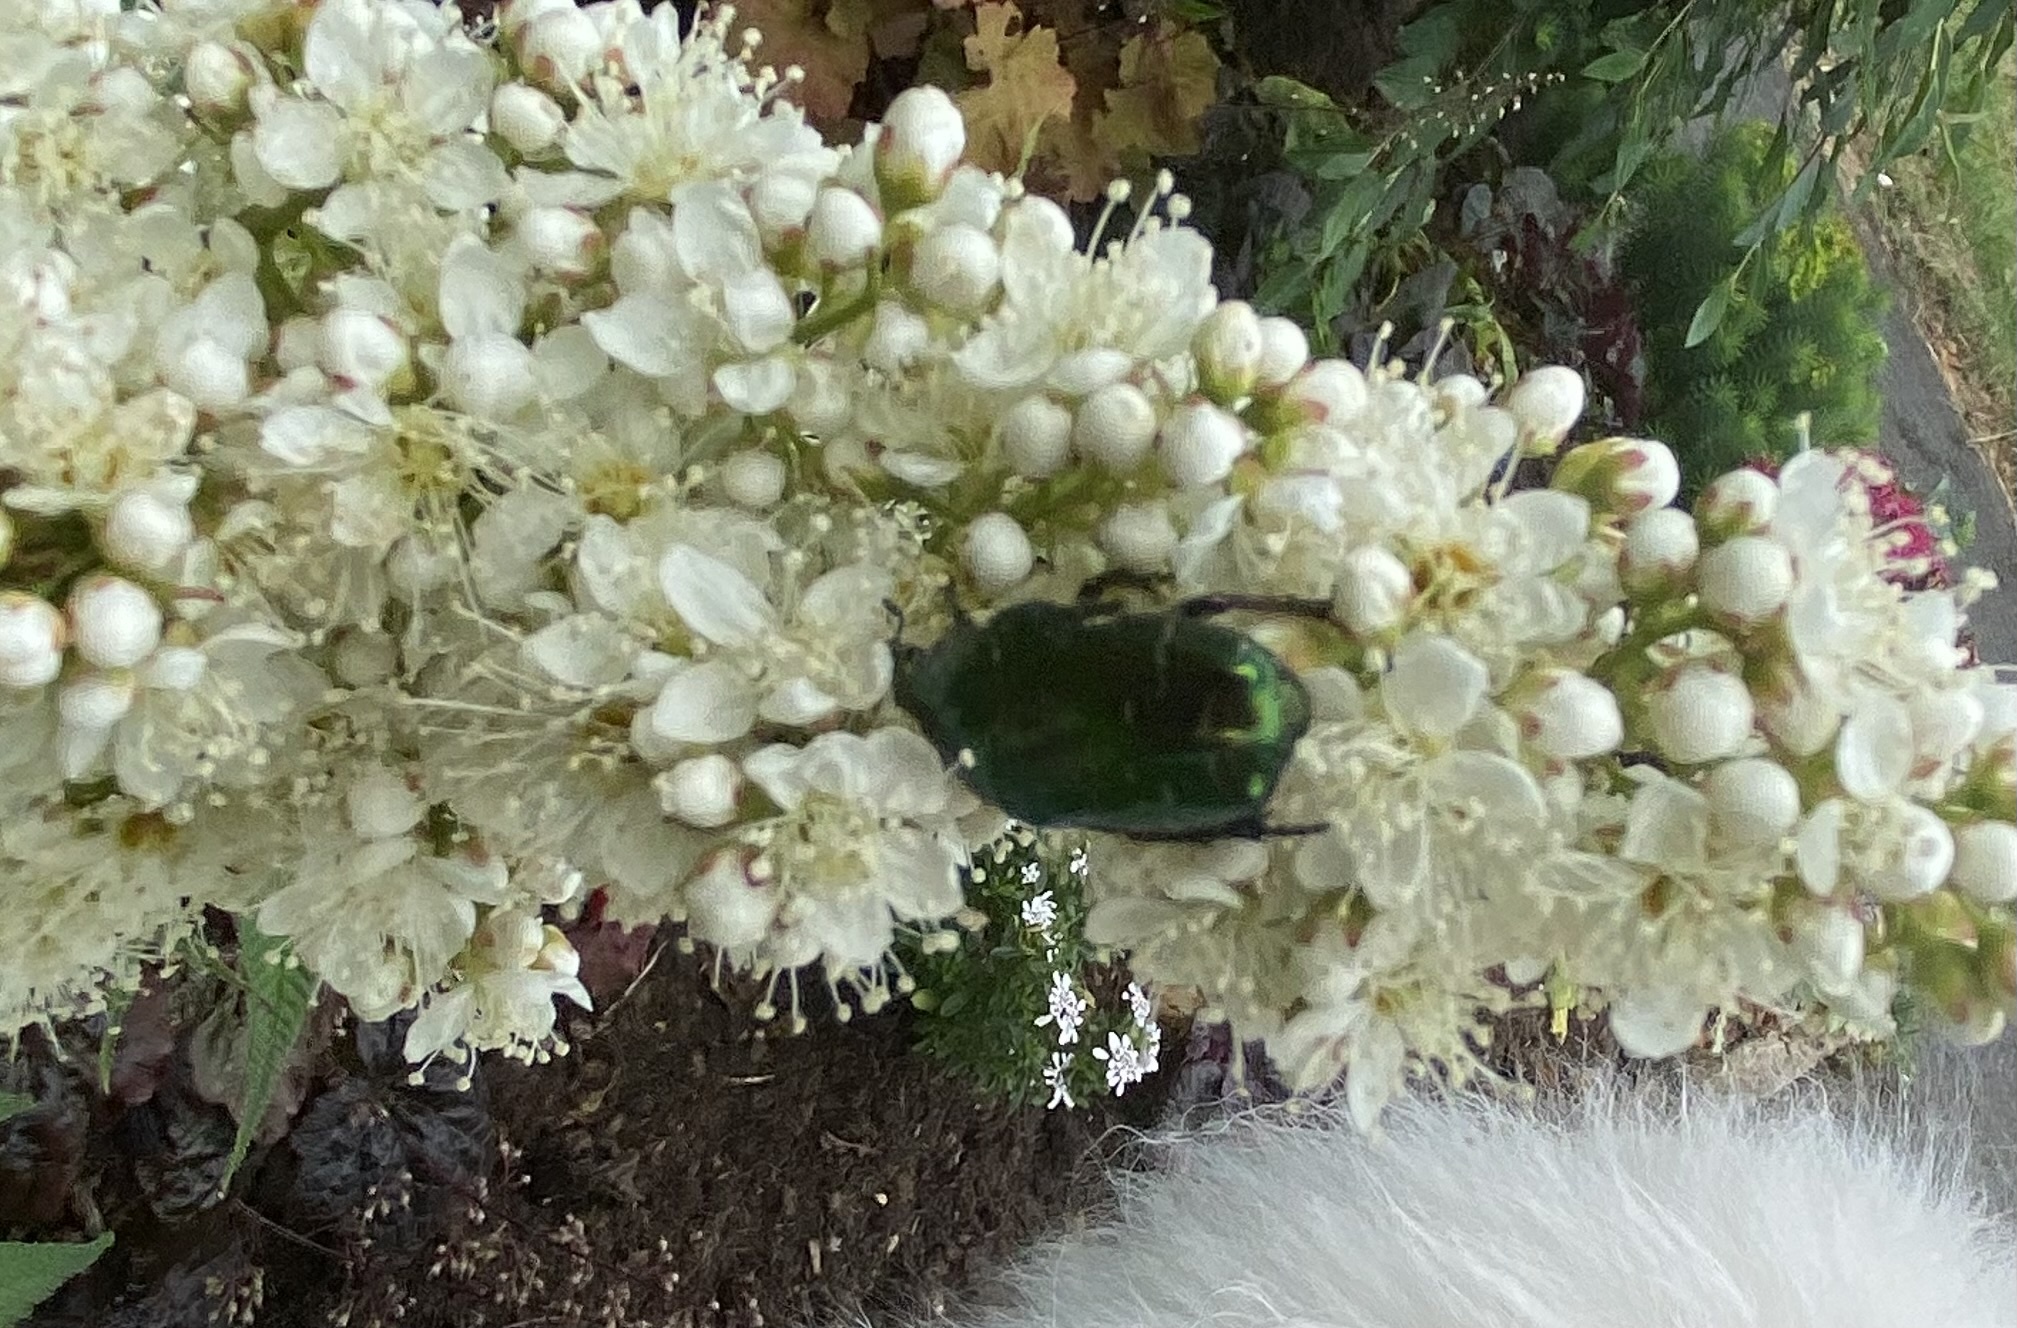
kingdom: Animalia
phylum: Arthropoda
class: Insecta
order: Coleoptera
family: Scarabaeidae
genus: Cetonia
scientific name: Cetonia aurata
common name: Rose chafer
